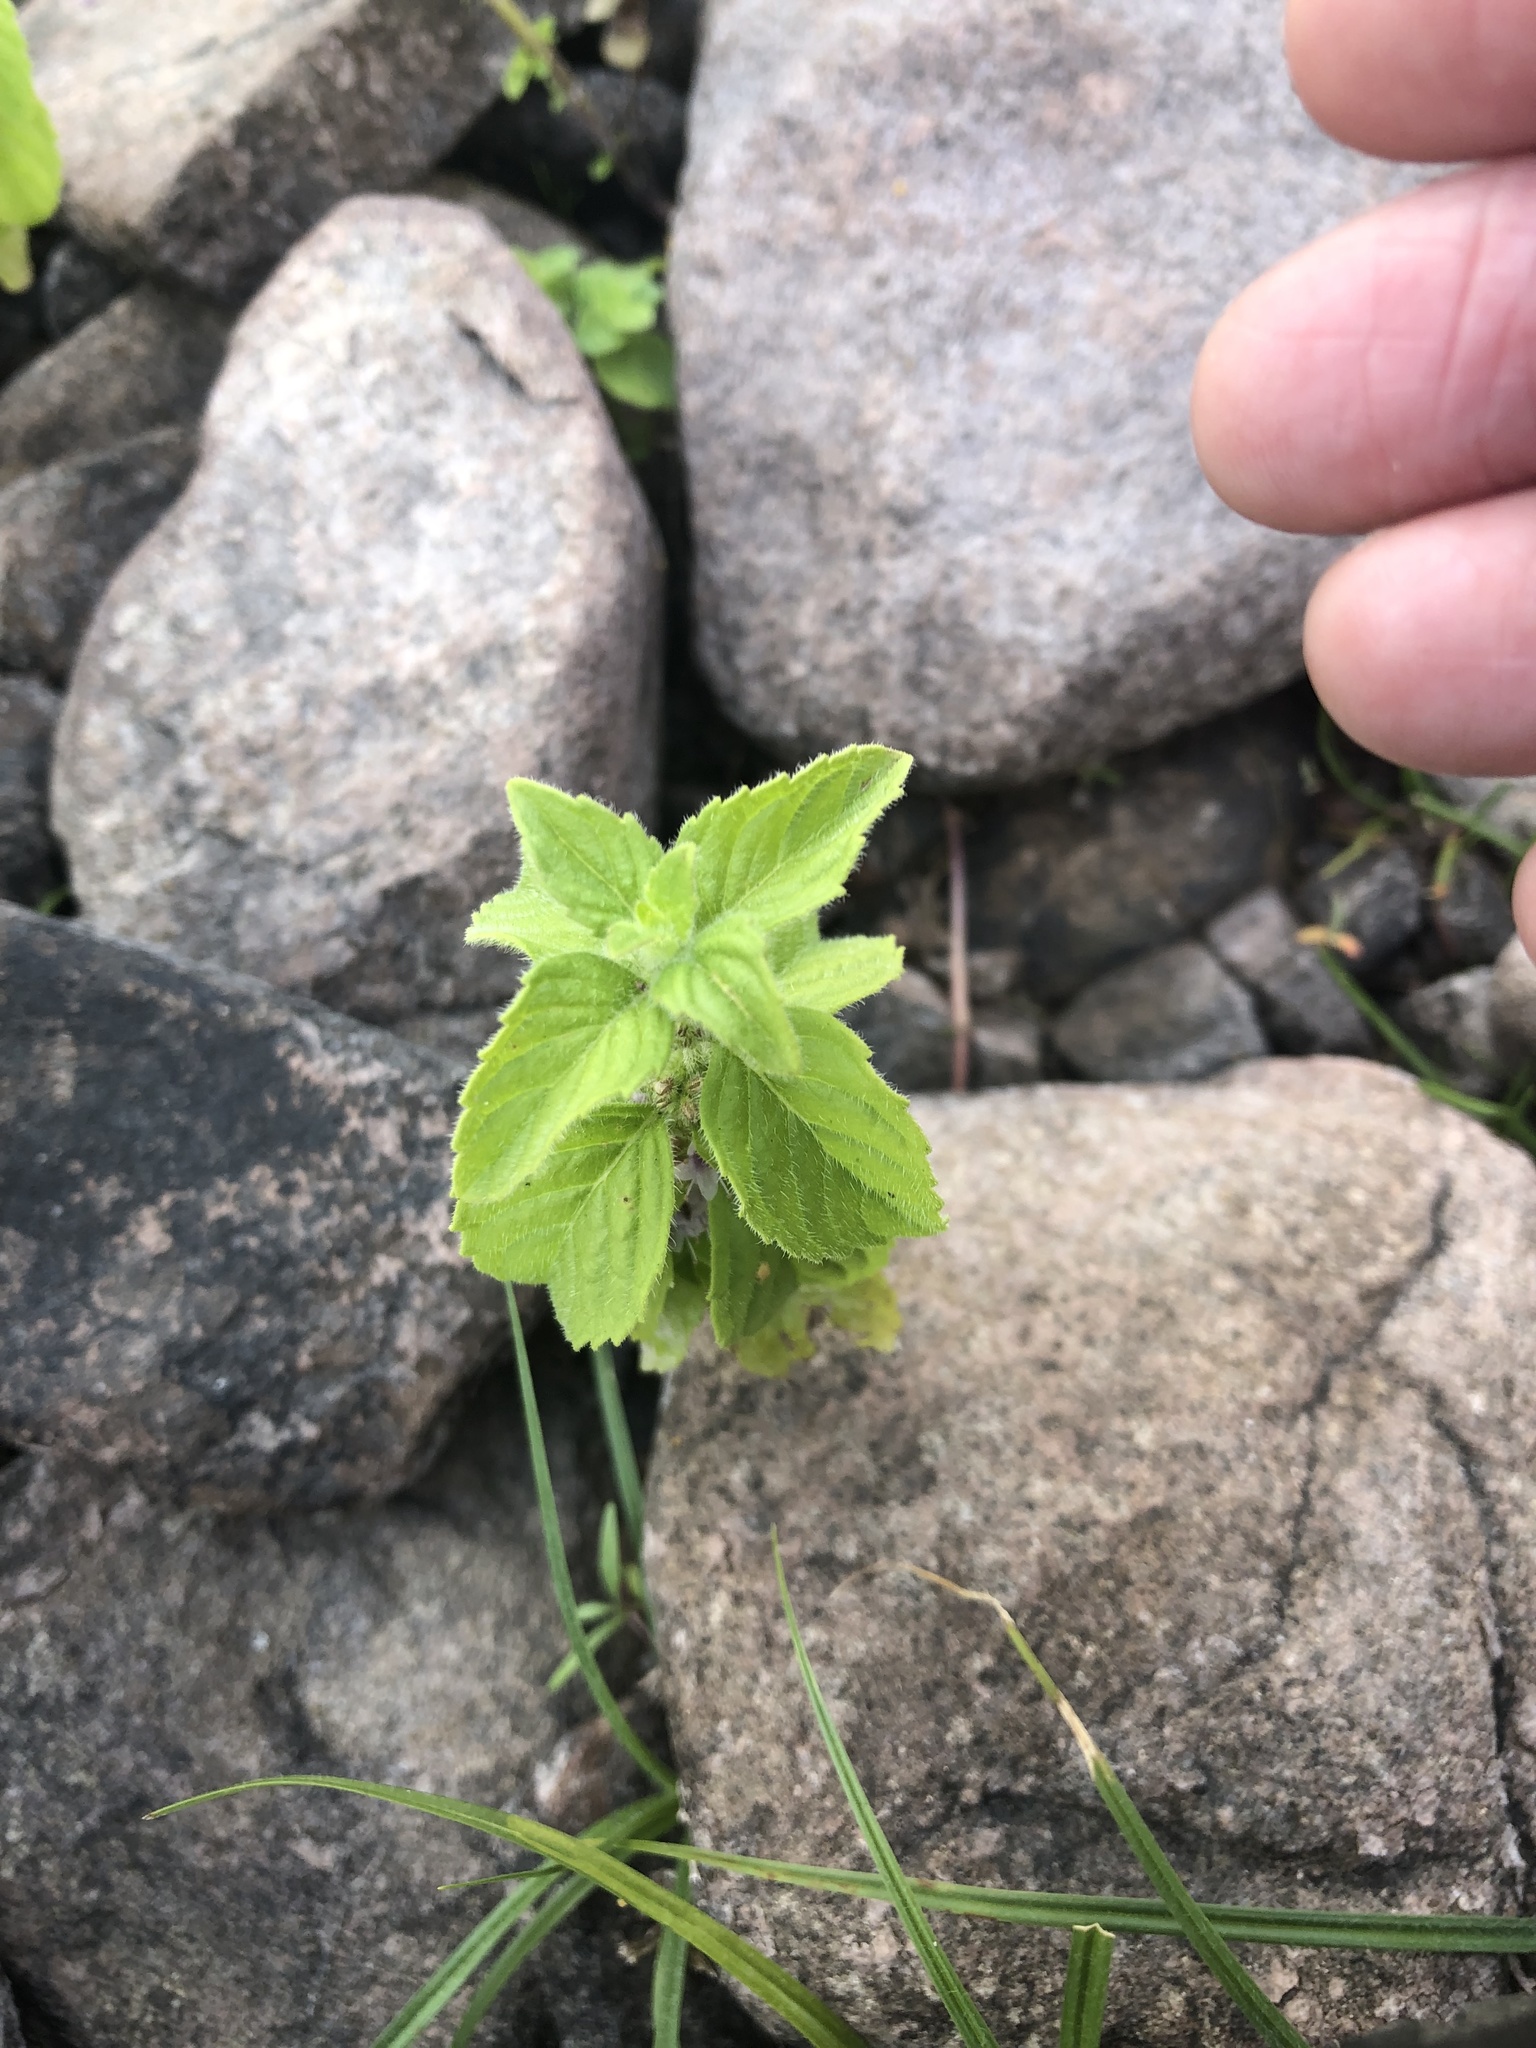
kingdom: Plantae
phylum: Tracheophyta
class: Magnoliopsida
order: Lamiales
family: Lamiaceae
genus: Mentha
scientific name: Mentha arvensis
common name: Corn mint
